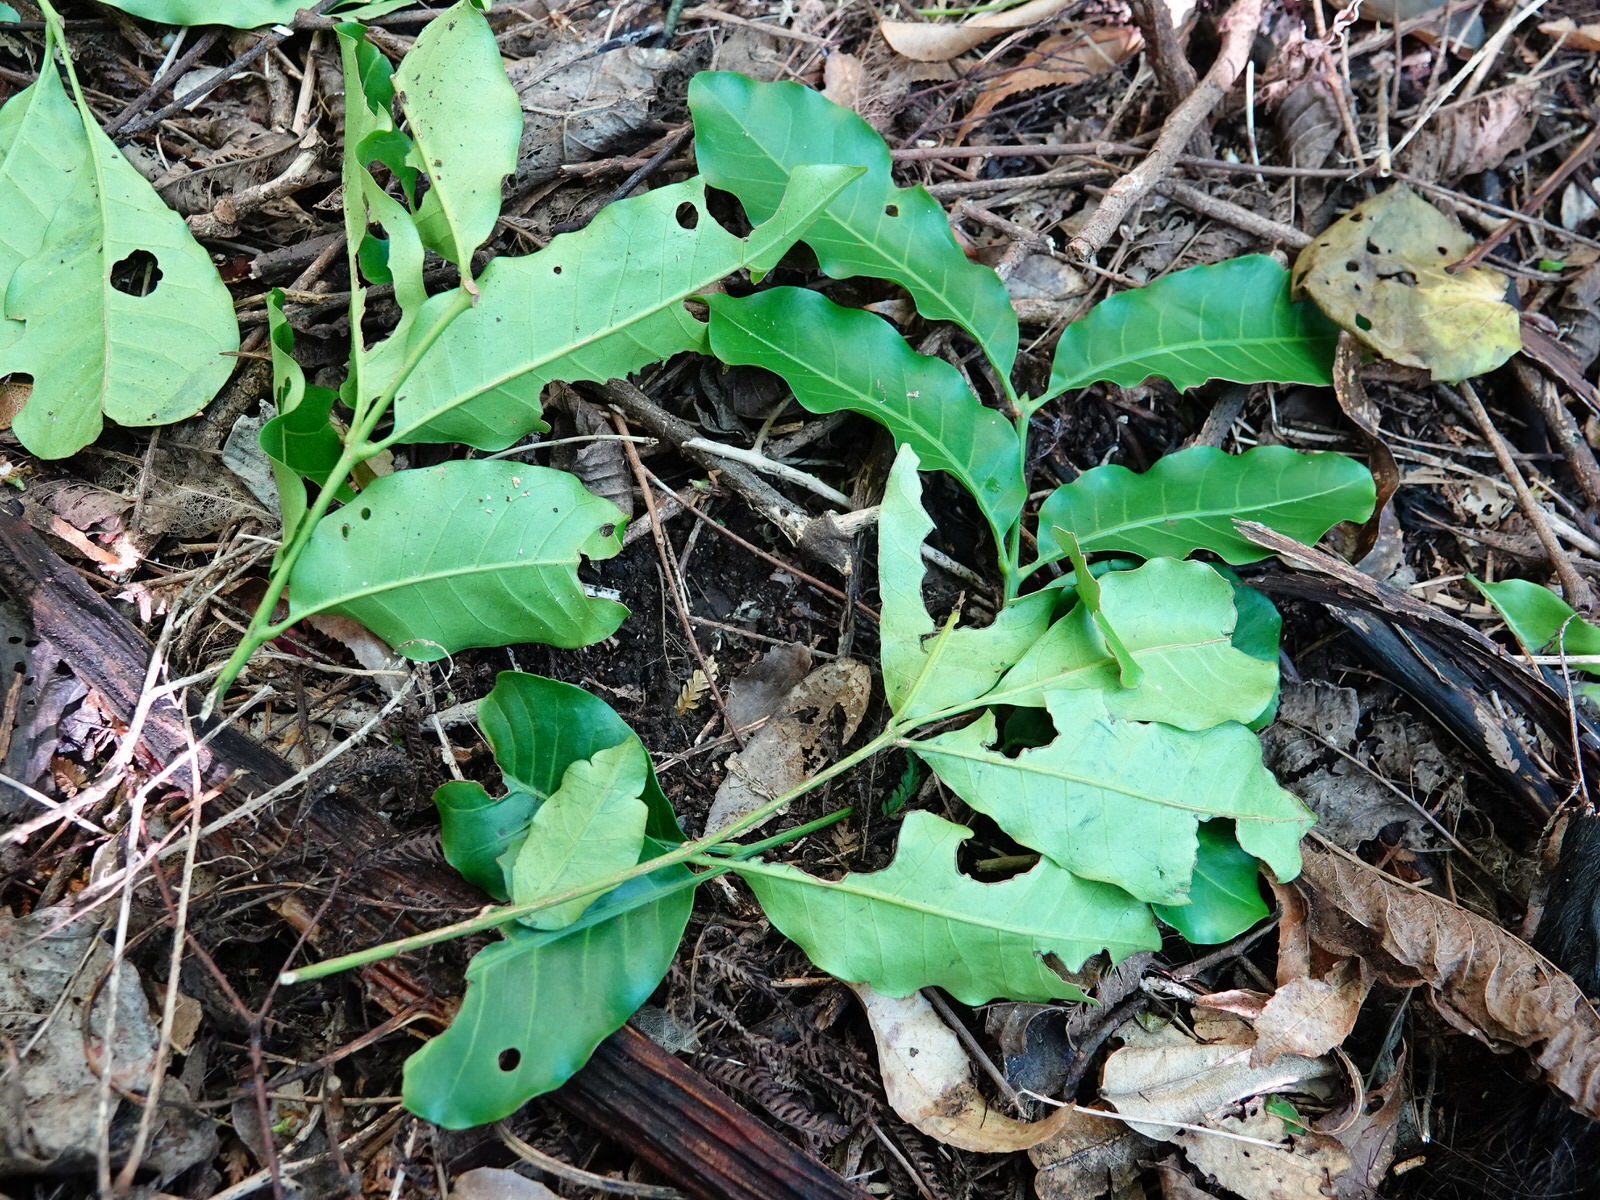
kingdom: Animalia
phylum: Chordata
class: Mammalia
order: Diprotodontia
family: Phalangeridae
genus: Trichosurus
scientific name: Trichosurus vulpecula
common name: Common brushtail
